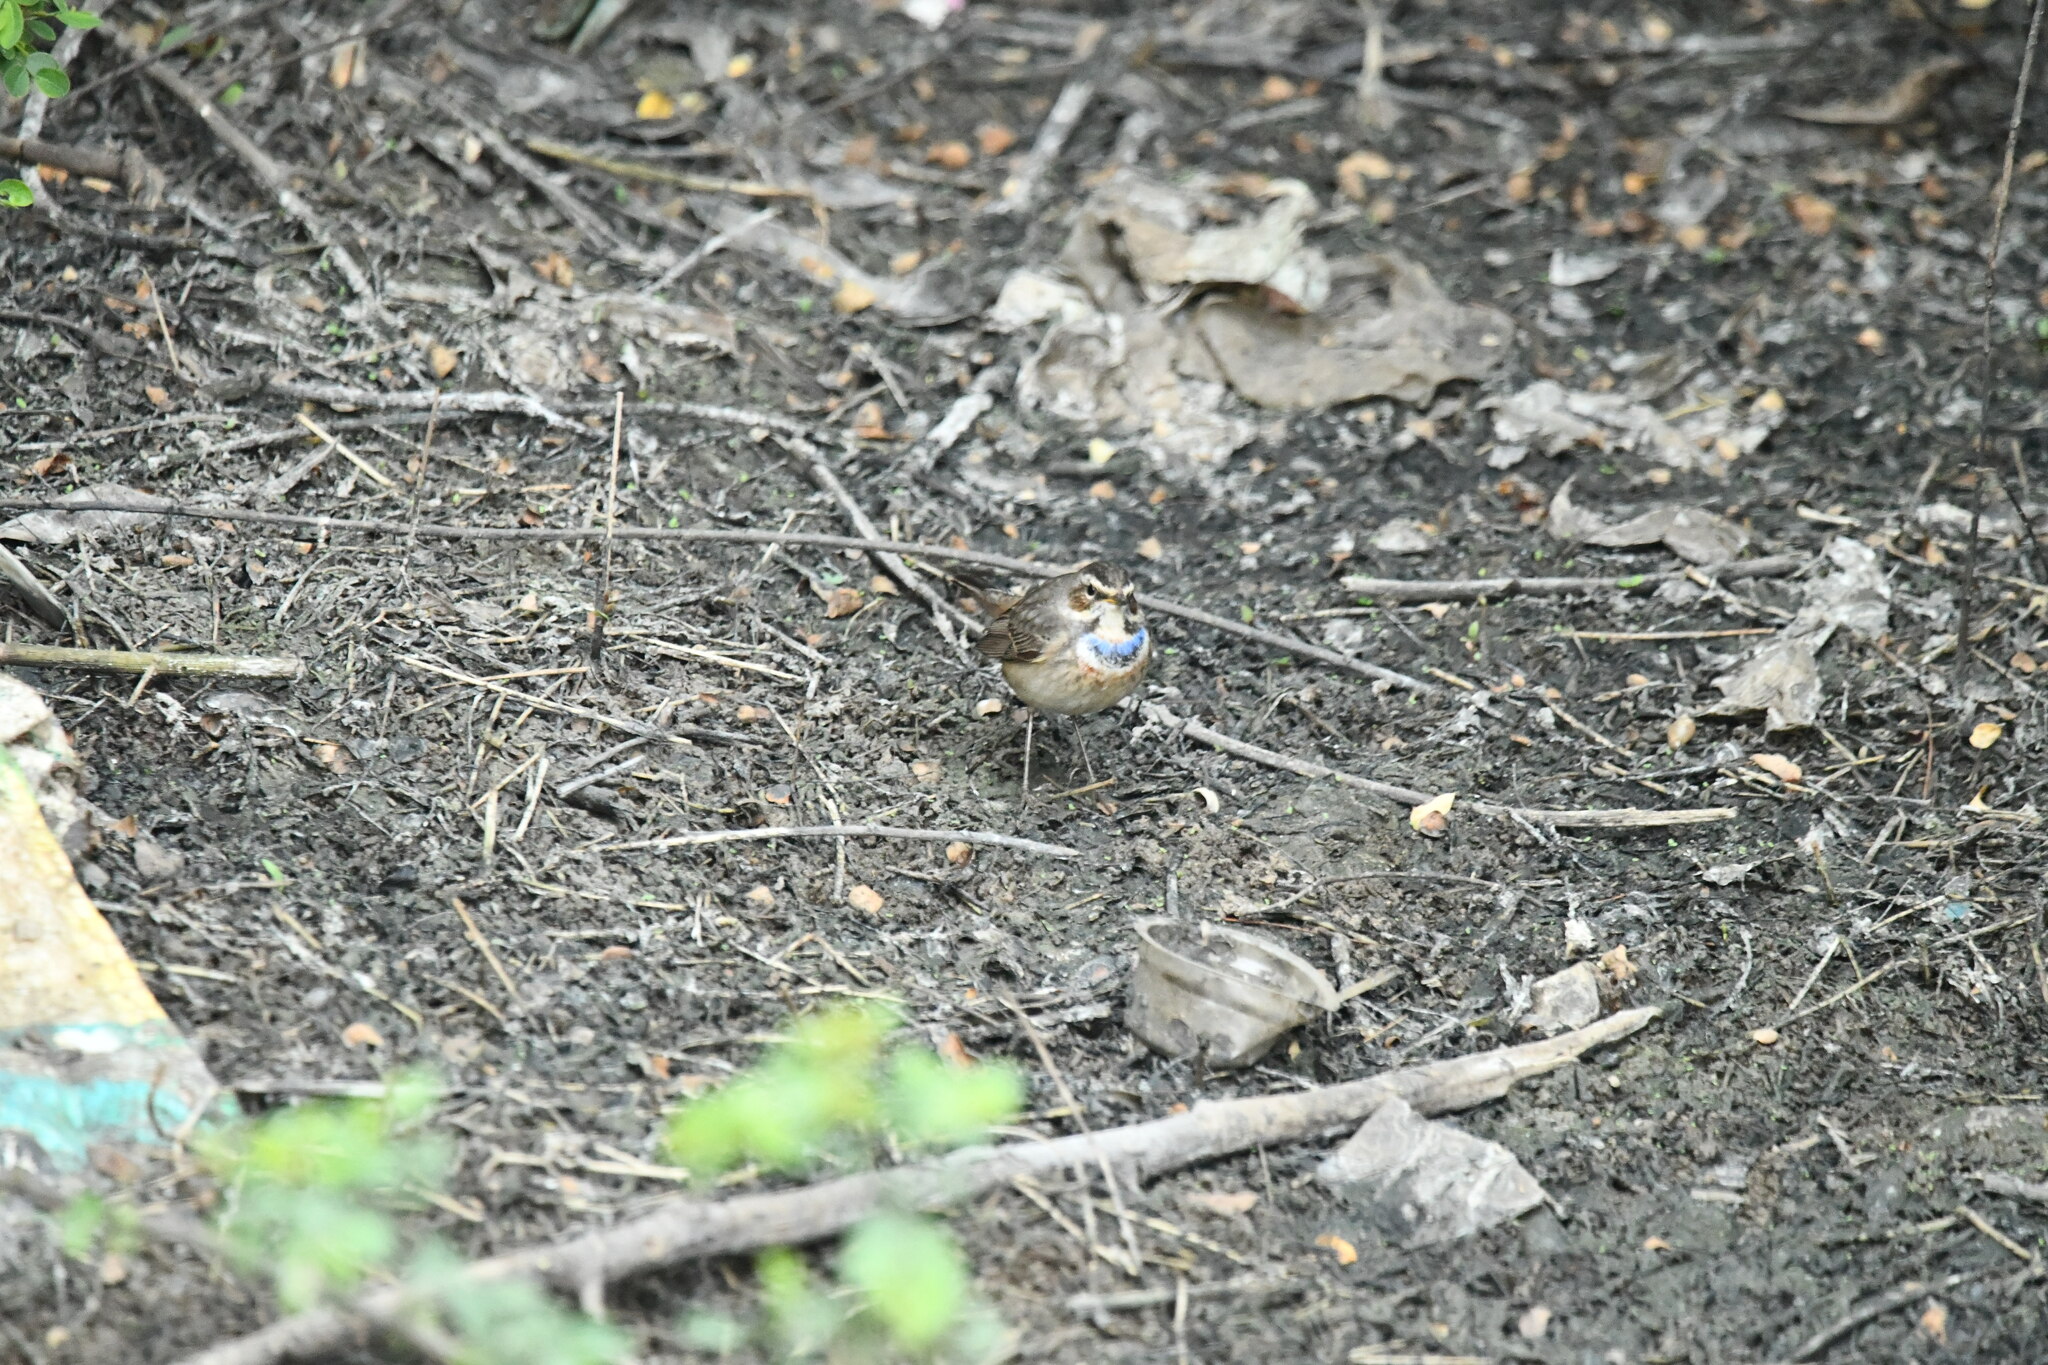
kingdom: Animalia
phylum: Chordata
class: Aves
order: Passeriformes
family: Muscicapidae
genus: Luscinia
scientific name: Luscinia svecica
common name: Bluethroat
